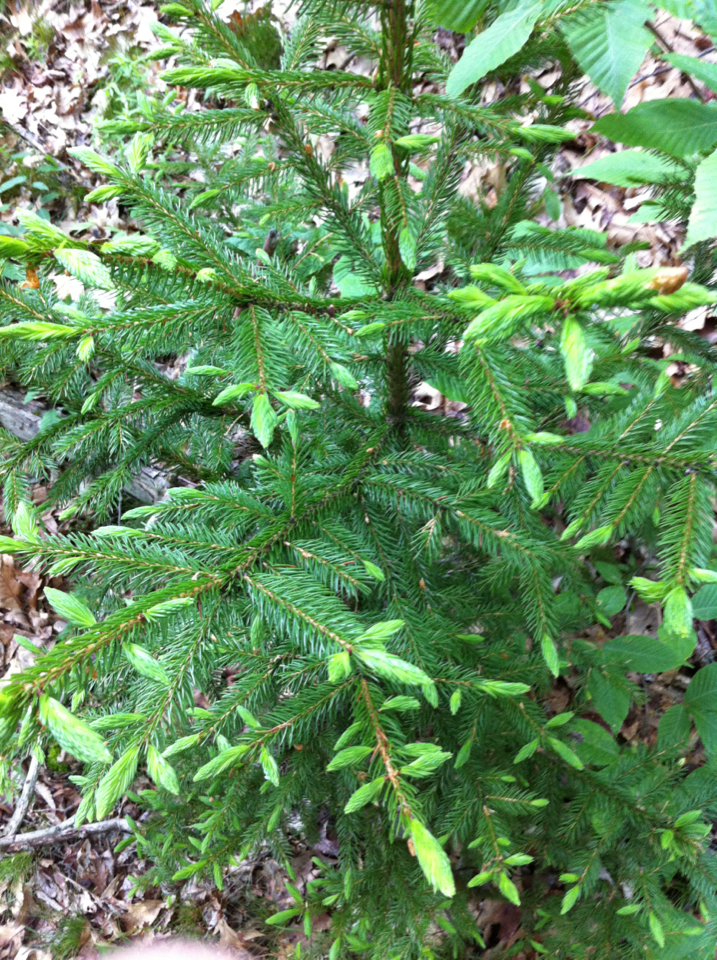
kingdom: Plantae
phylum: Tracheophyta
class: Pinopsida
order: Pinales
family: Pinaceae
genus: Picea
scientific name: Picea rubens
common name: Red spruce
